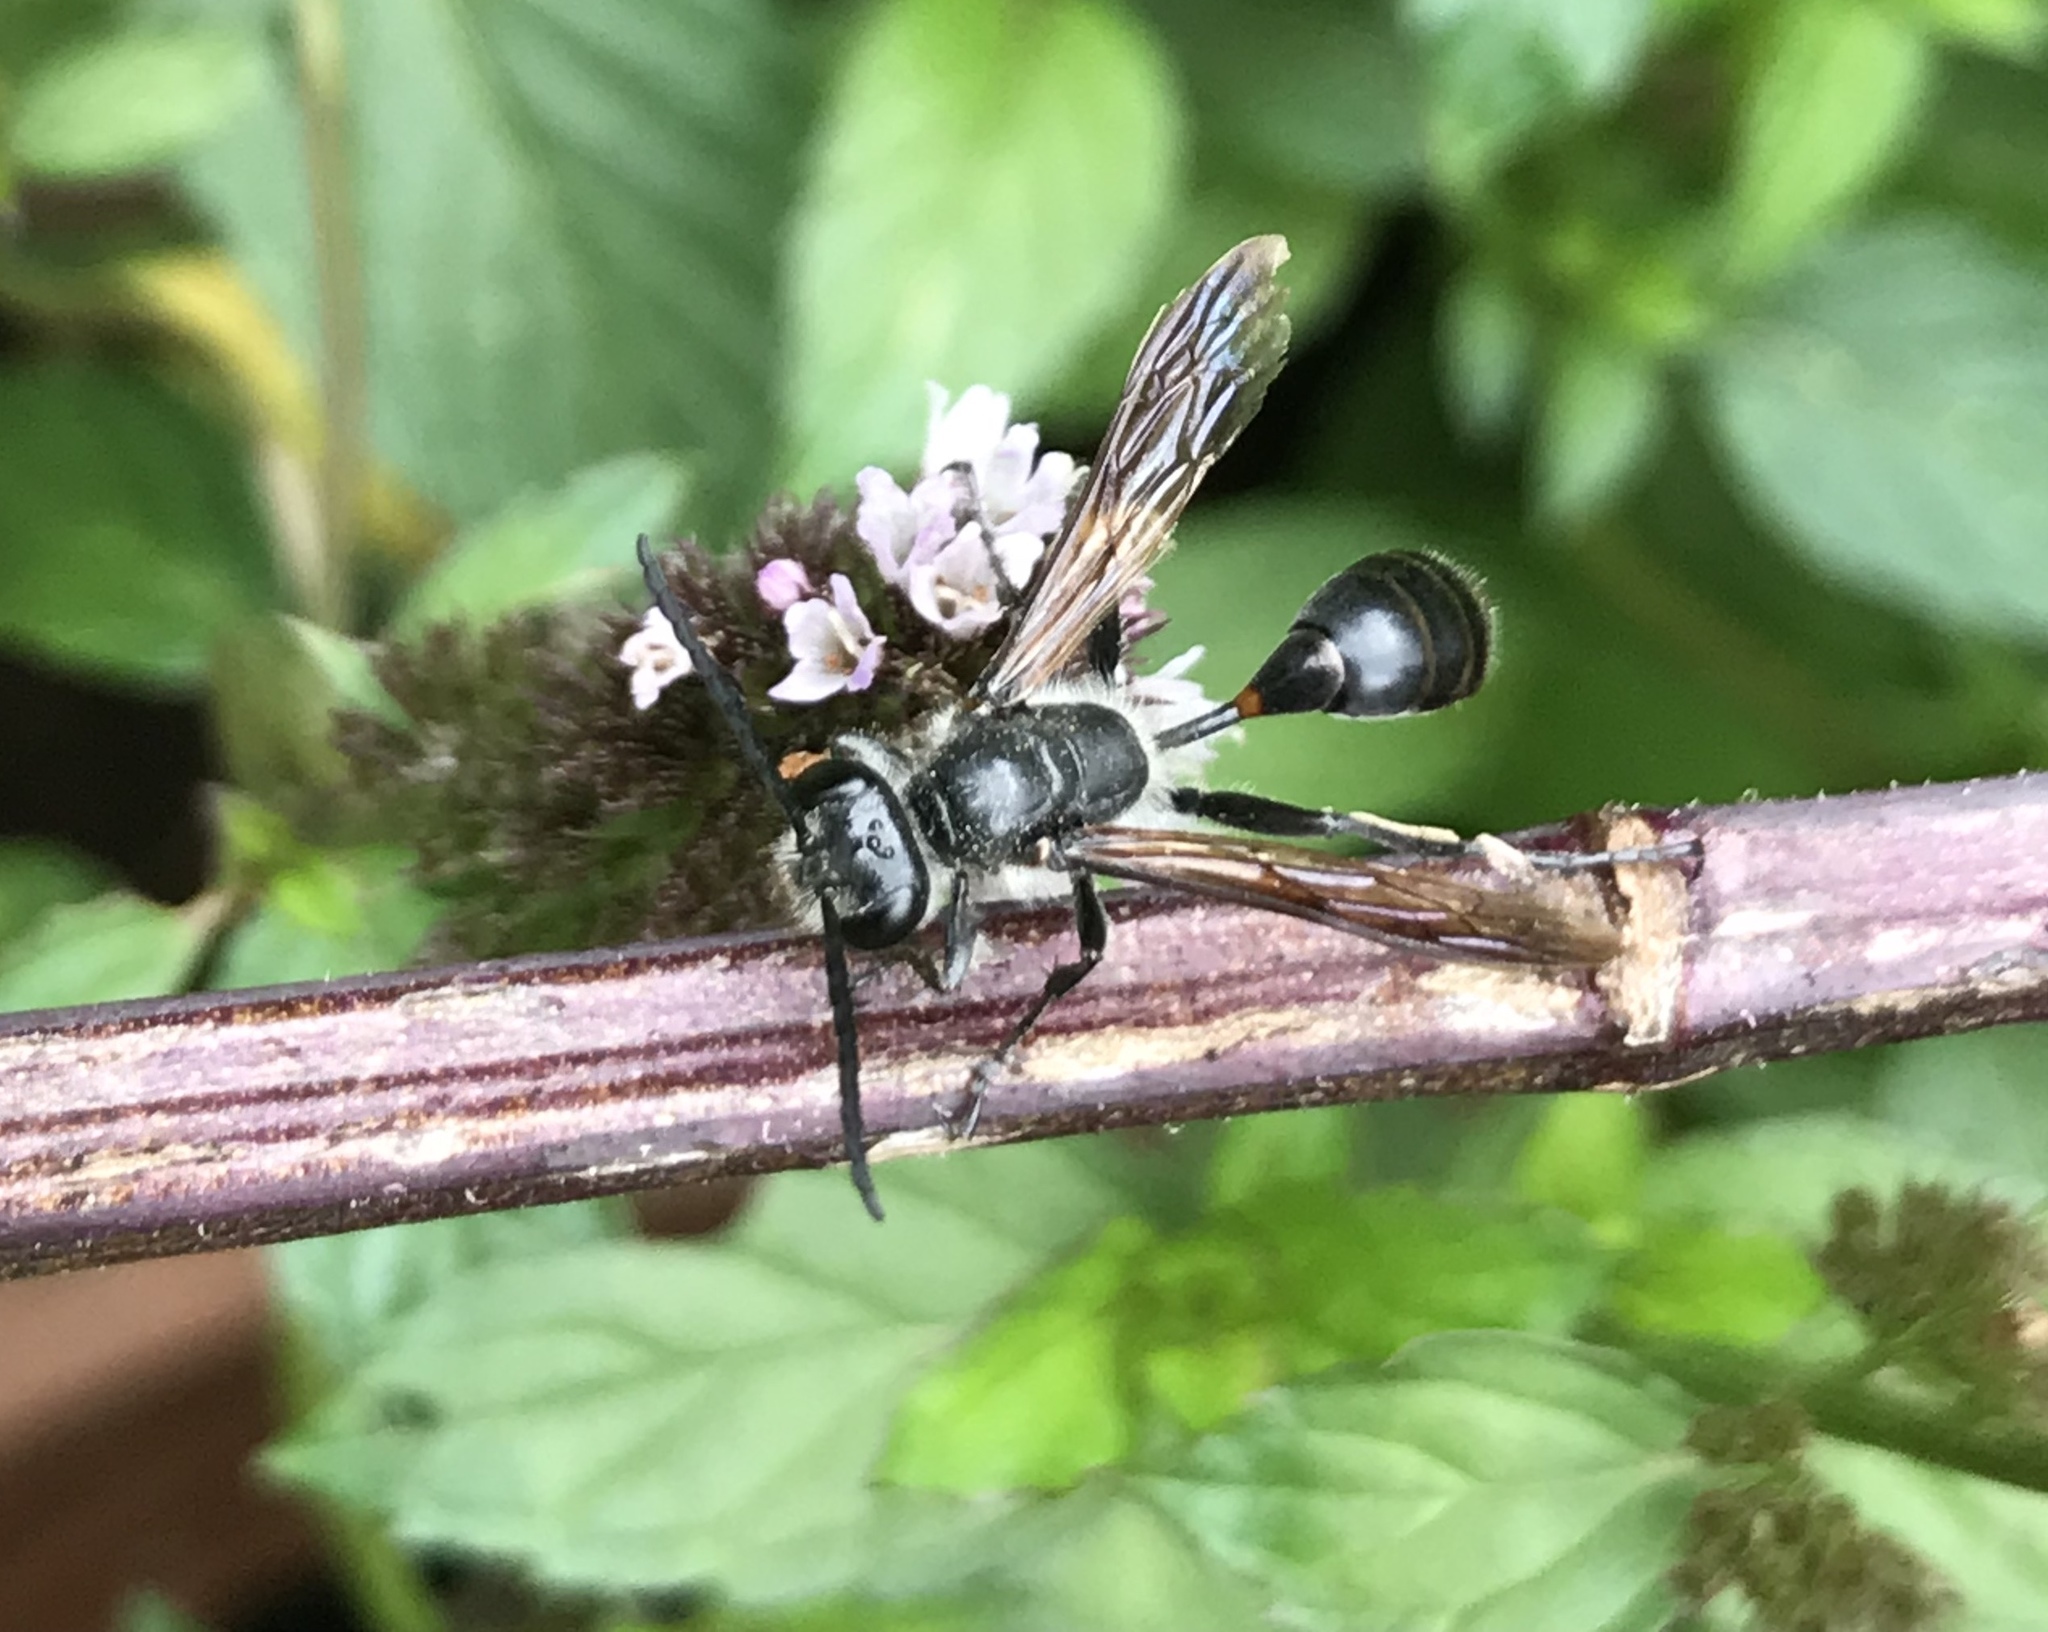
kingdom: Animalia
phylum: Arthropoda
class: Insecta
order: Hymenoptera
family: Sphecidae
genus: Isodontia
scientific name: Isodontia mexicana
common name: Mud dauber
